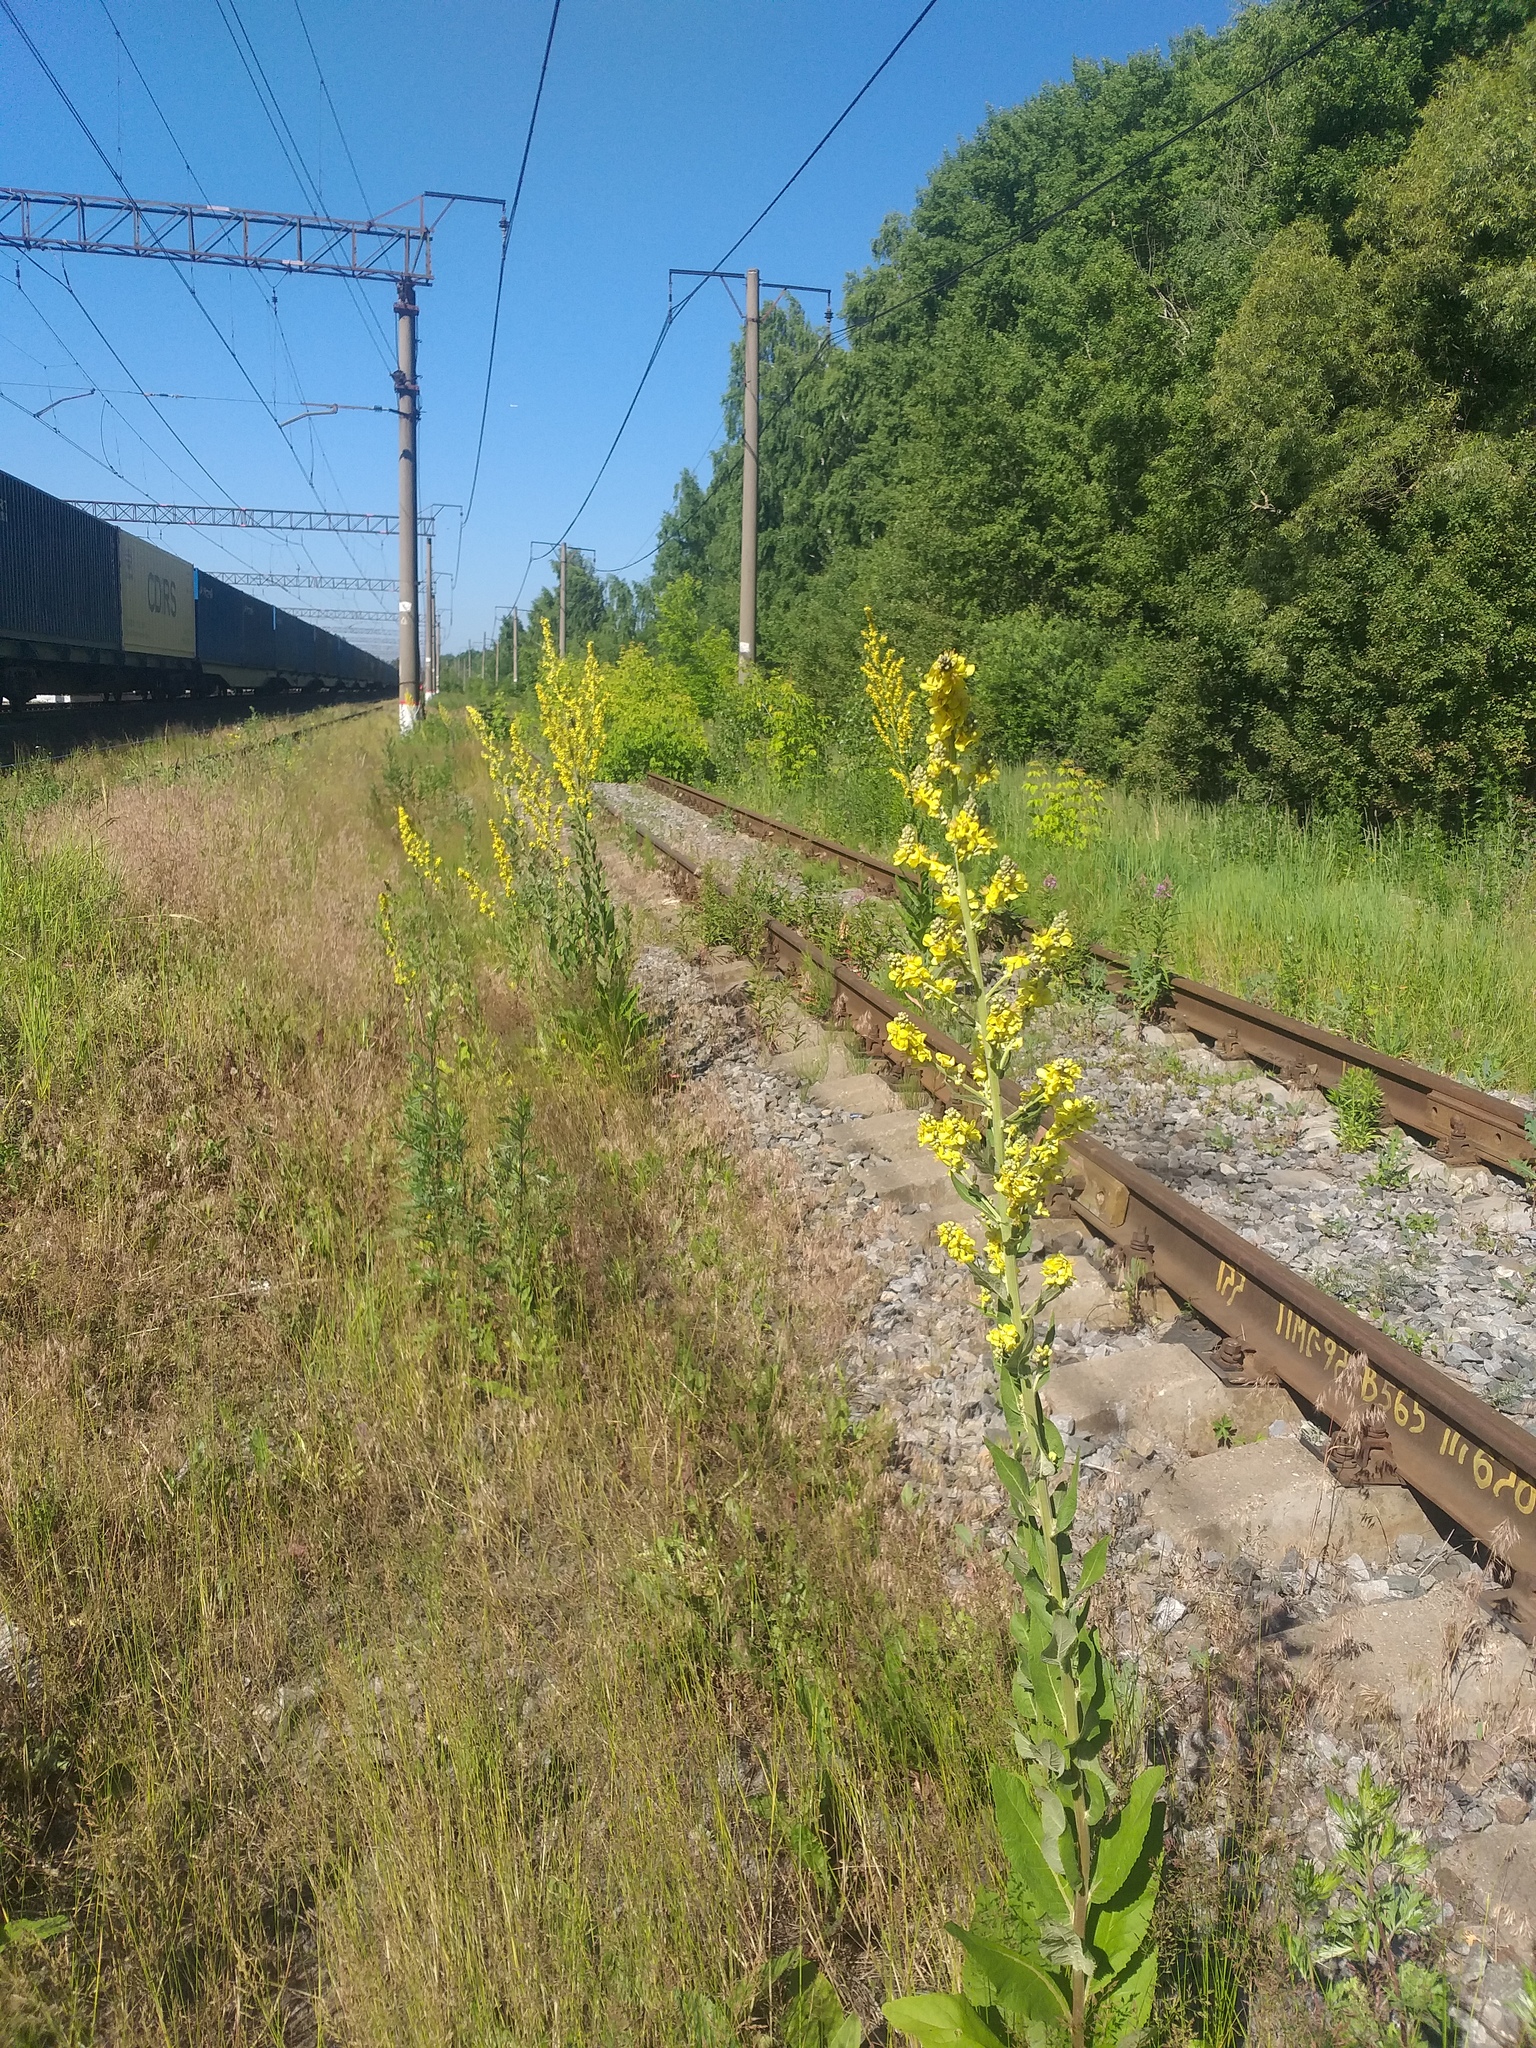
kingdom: Plantae
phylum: Tracheophyta
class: Magnoliopsida
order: Lamiales
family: Scrophulariaceae
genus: Verbascum
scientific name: Verbascum lychnitis
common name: White mullein
